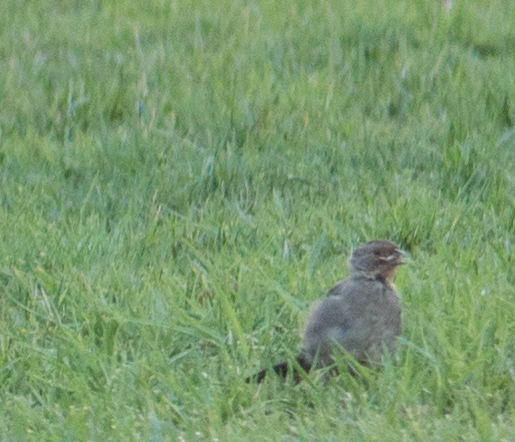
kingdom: Animalia
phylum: Chordata
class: Aves
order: Passeriformes
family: Passerellidae
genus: Melozone
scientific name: Melozone crissalis
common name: California towhee
